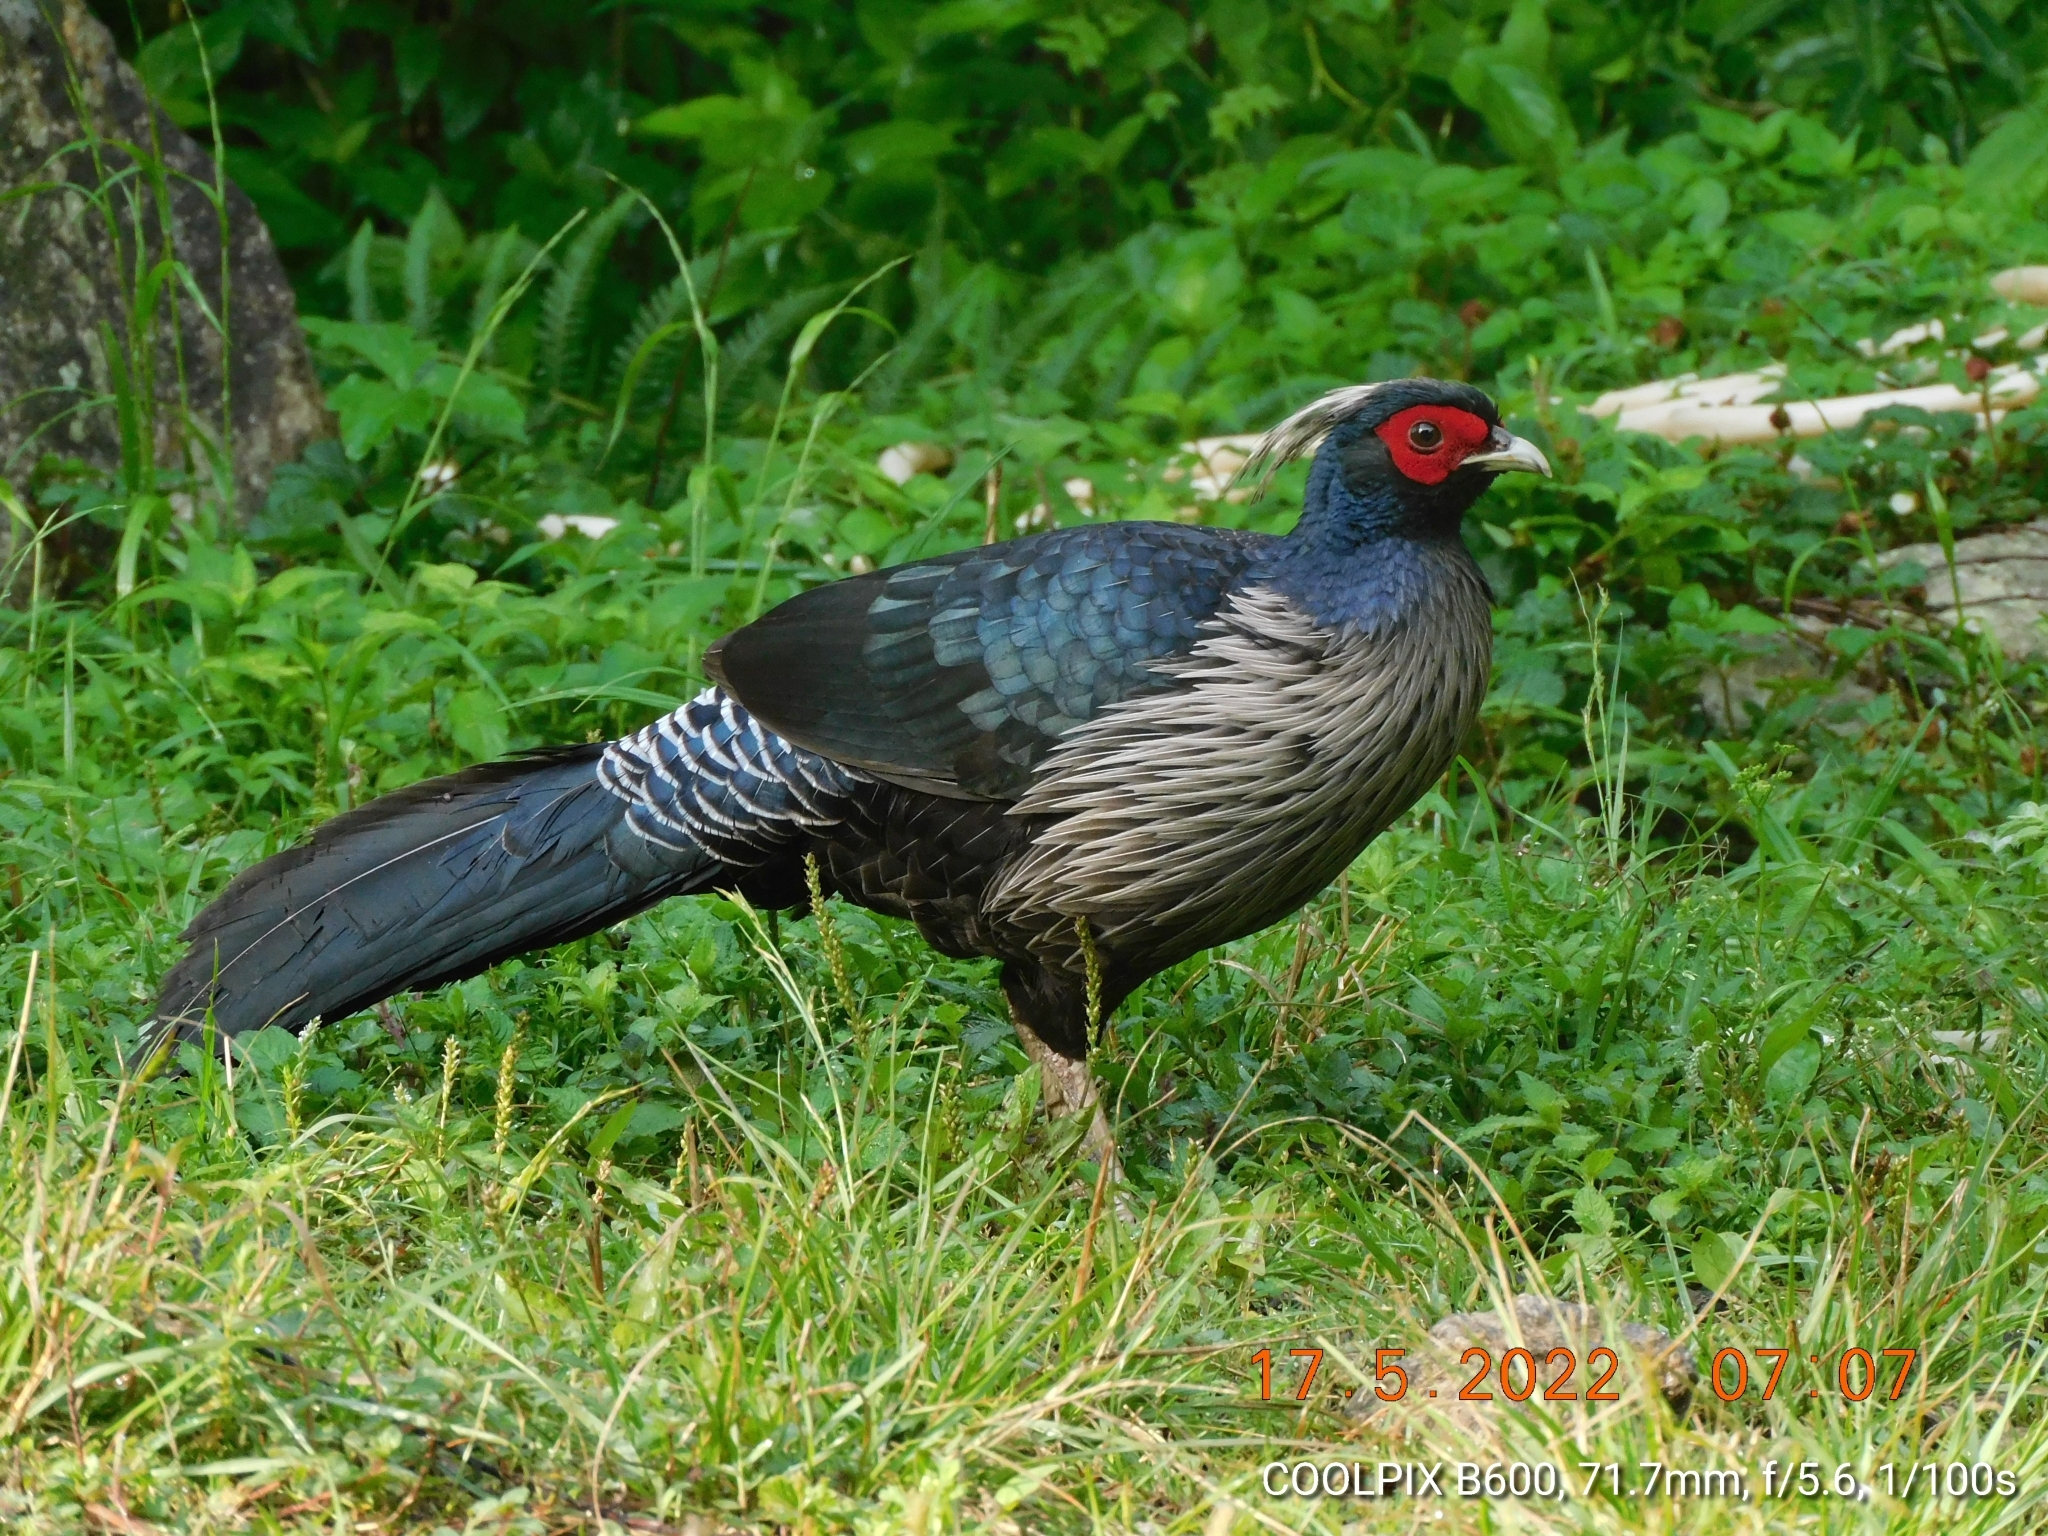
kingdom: Animalia
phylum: Chordata
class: Aves
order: Galliformes
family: Phasianidae
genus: Lophura
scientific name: Lophura leucomelanos
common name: Kalij pheasant
